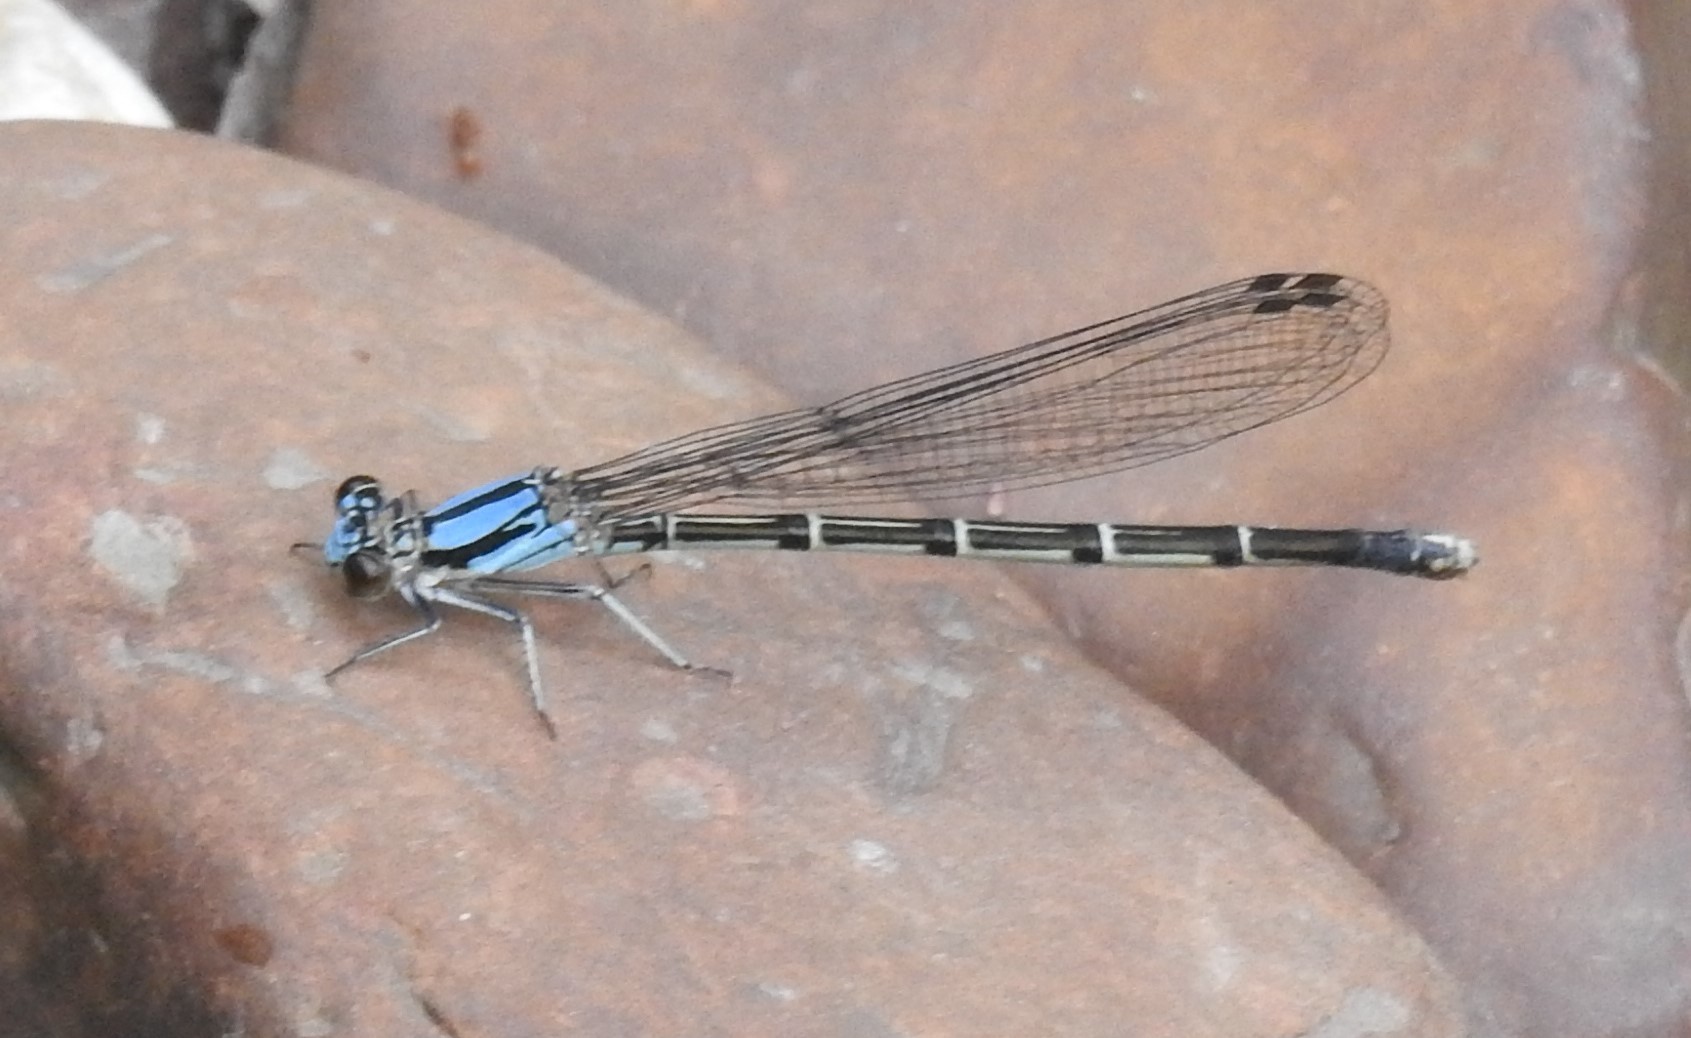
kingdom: Animalia
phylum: Arthropoda
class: Insecta
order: Odonata
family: Coenagrionidae
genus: Argia
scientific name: Argia tibialis
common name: Blue-tipped dancer
